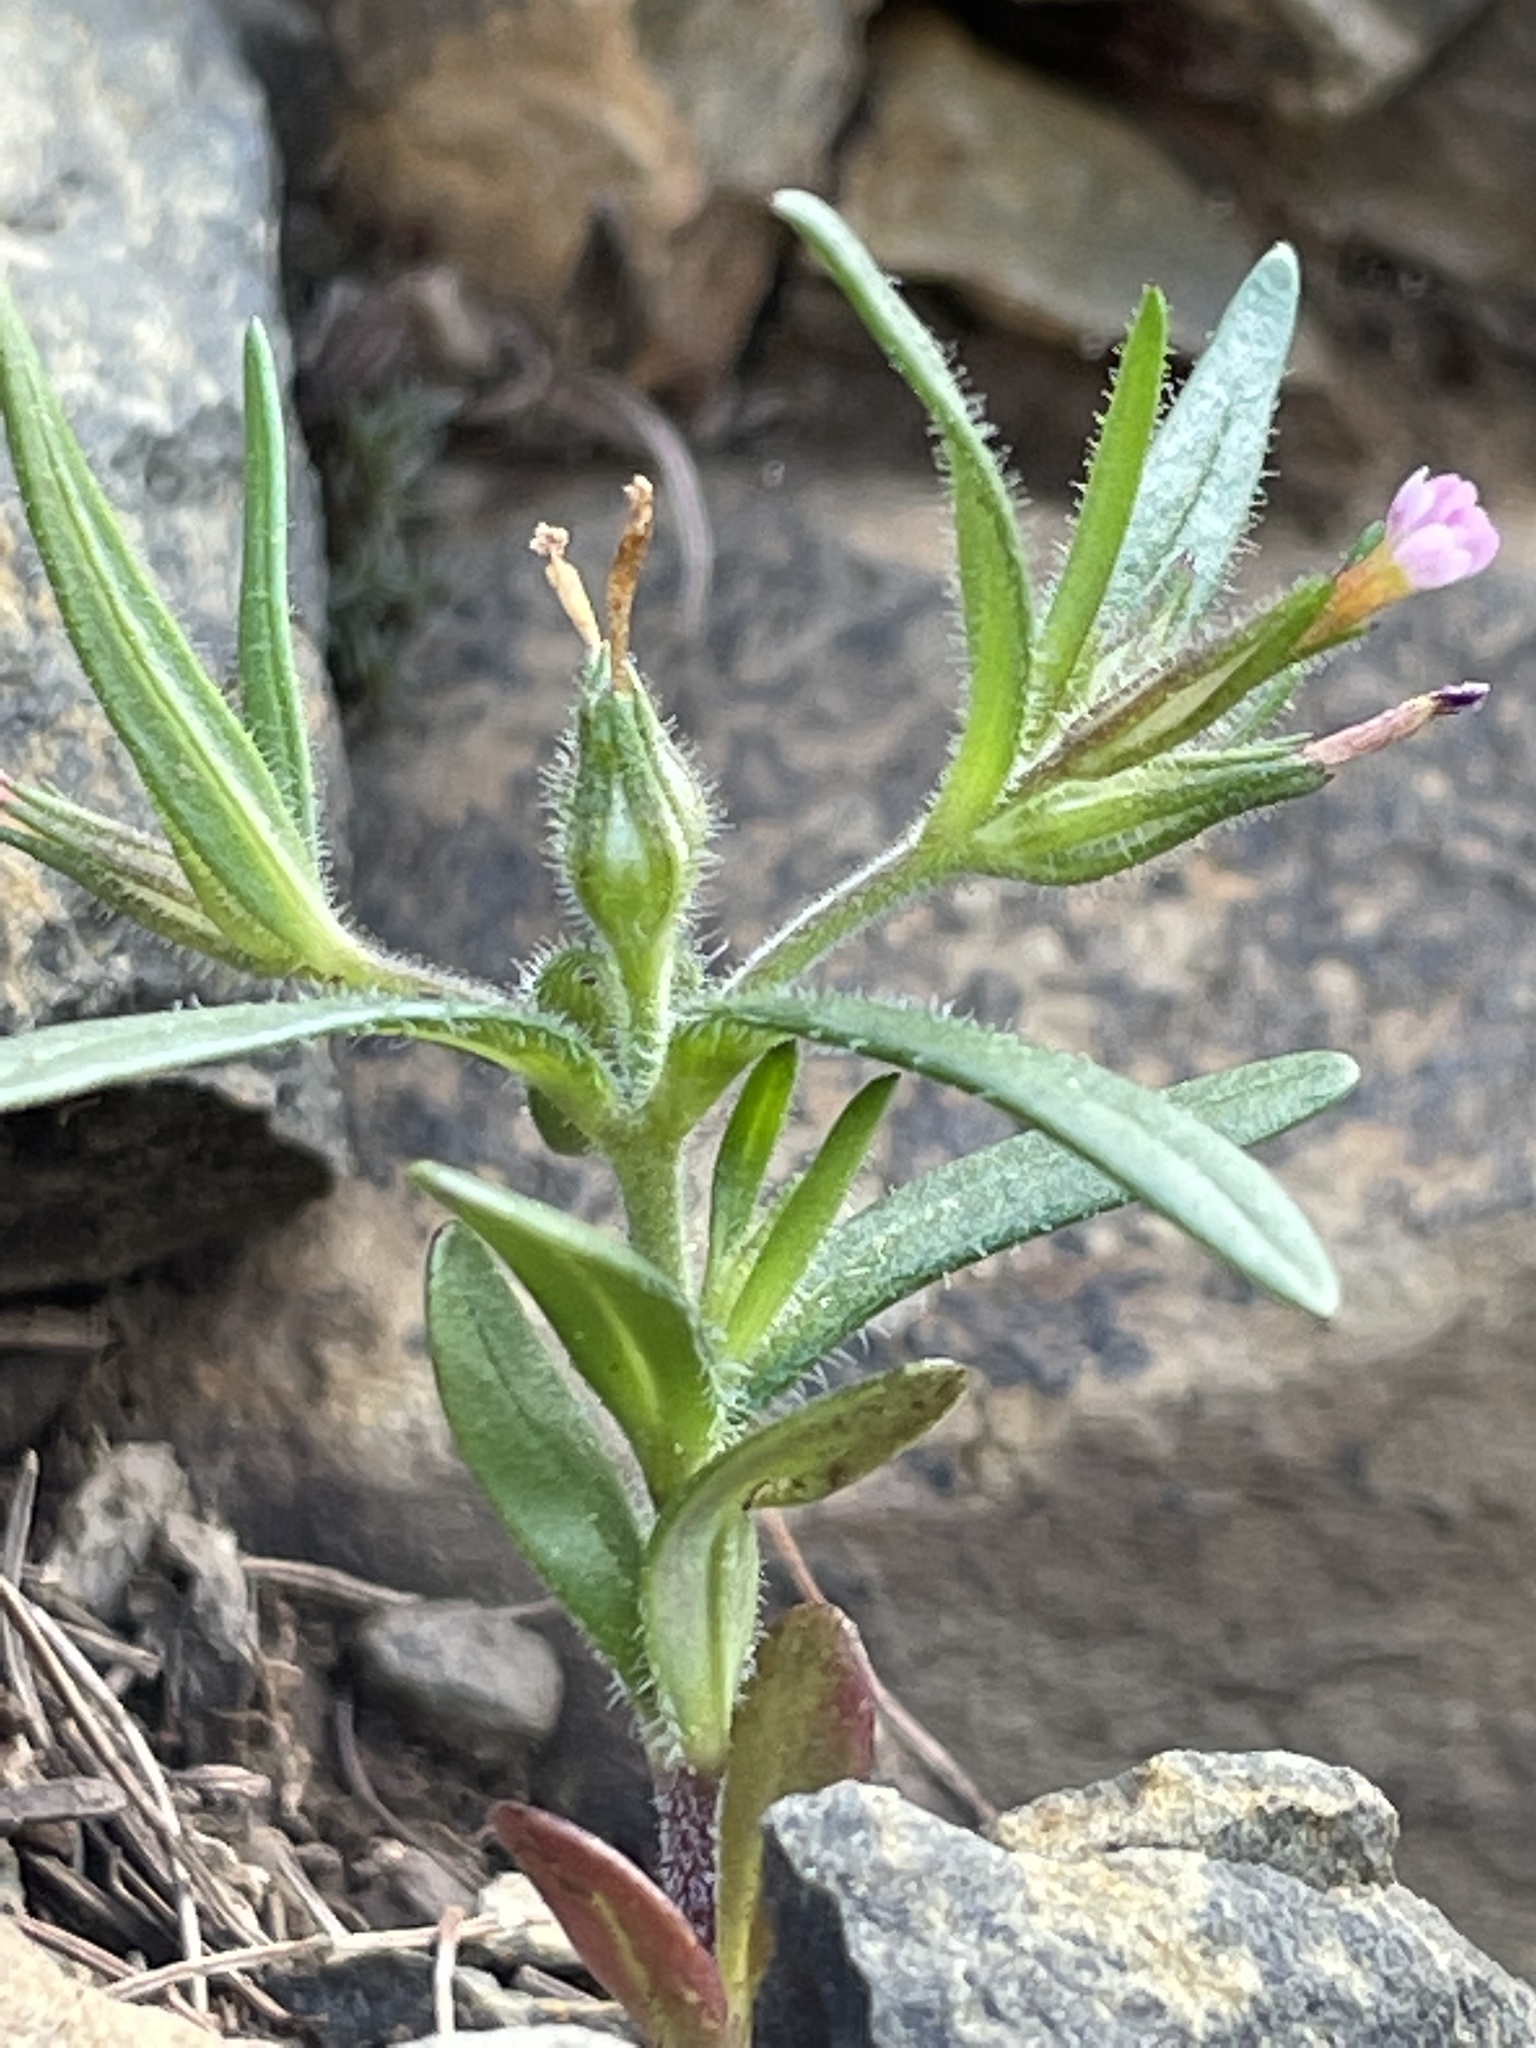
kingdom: Plantae
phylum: Tracheophyta
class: Magnoliopsida
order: Ericales
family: Polemoniaceae
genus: Phlox
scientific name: Phlox gracilis
